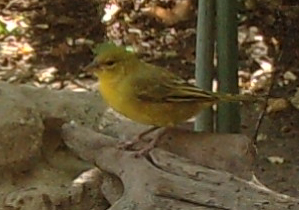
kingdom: Animalia
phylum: Chordata
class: Aves
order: Passeriformes
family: Ploceidae
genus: Ploceus
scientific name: Ploceus xanthops
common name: Holub's golden weaver
